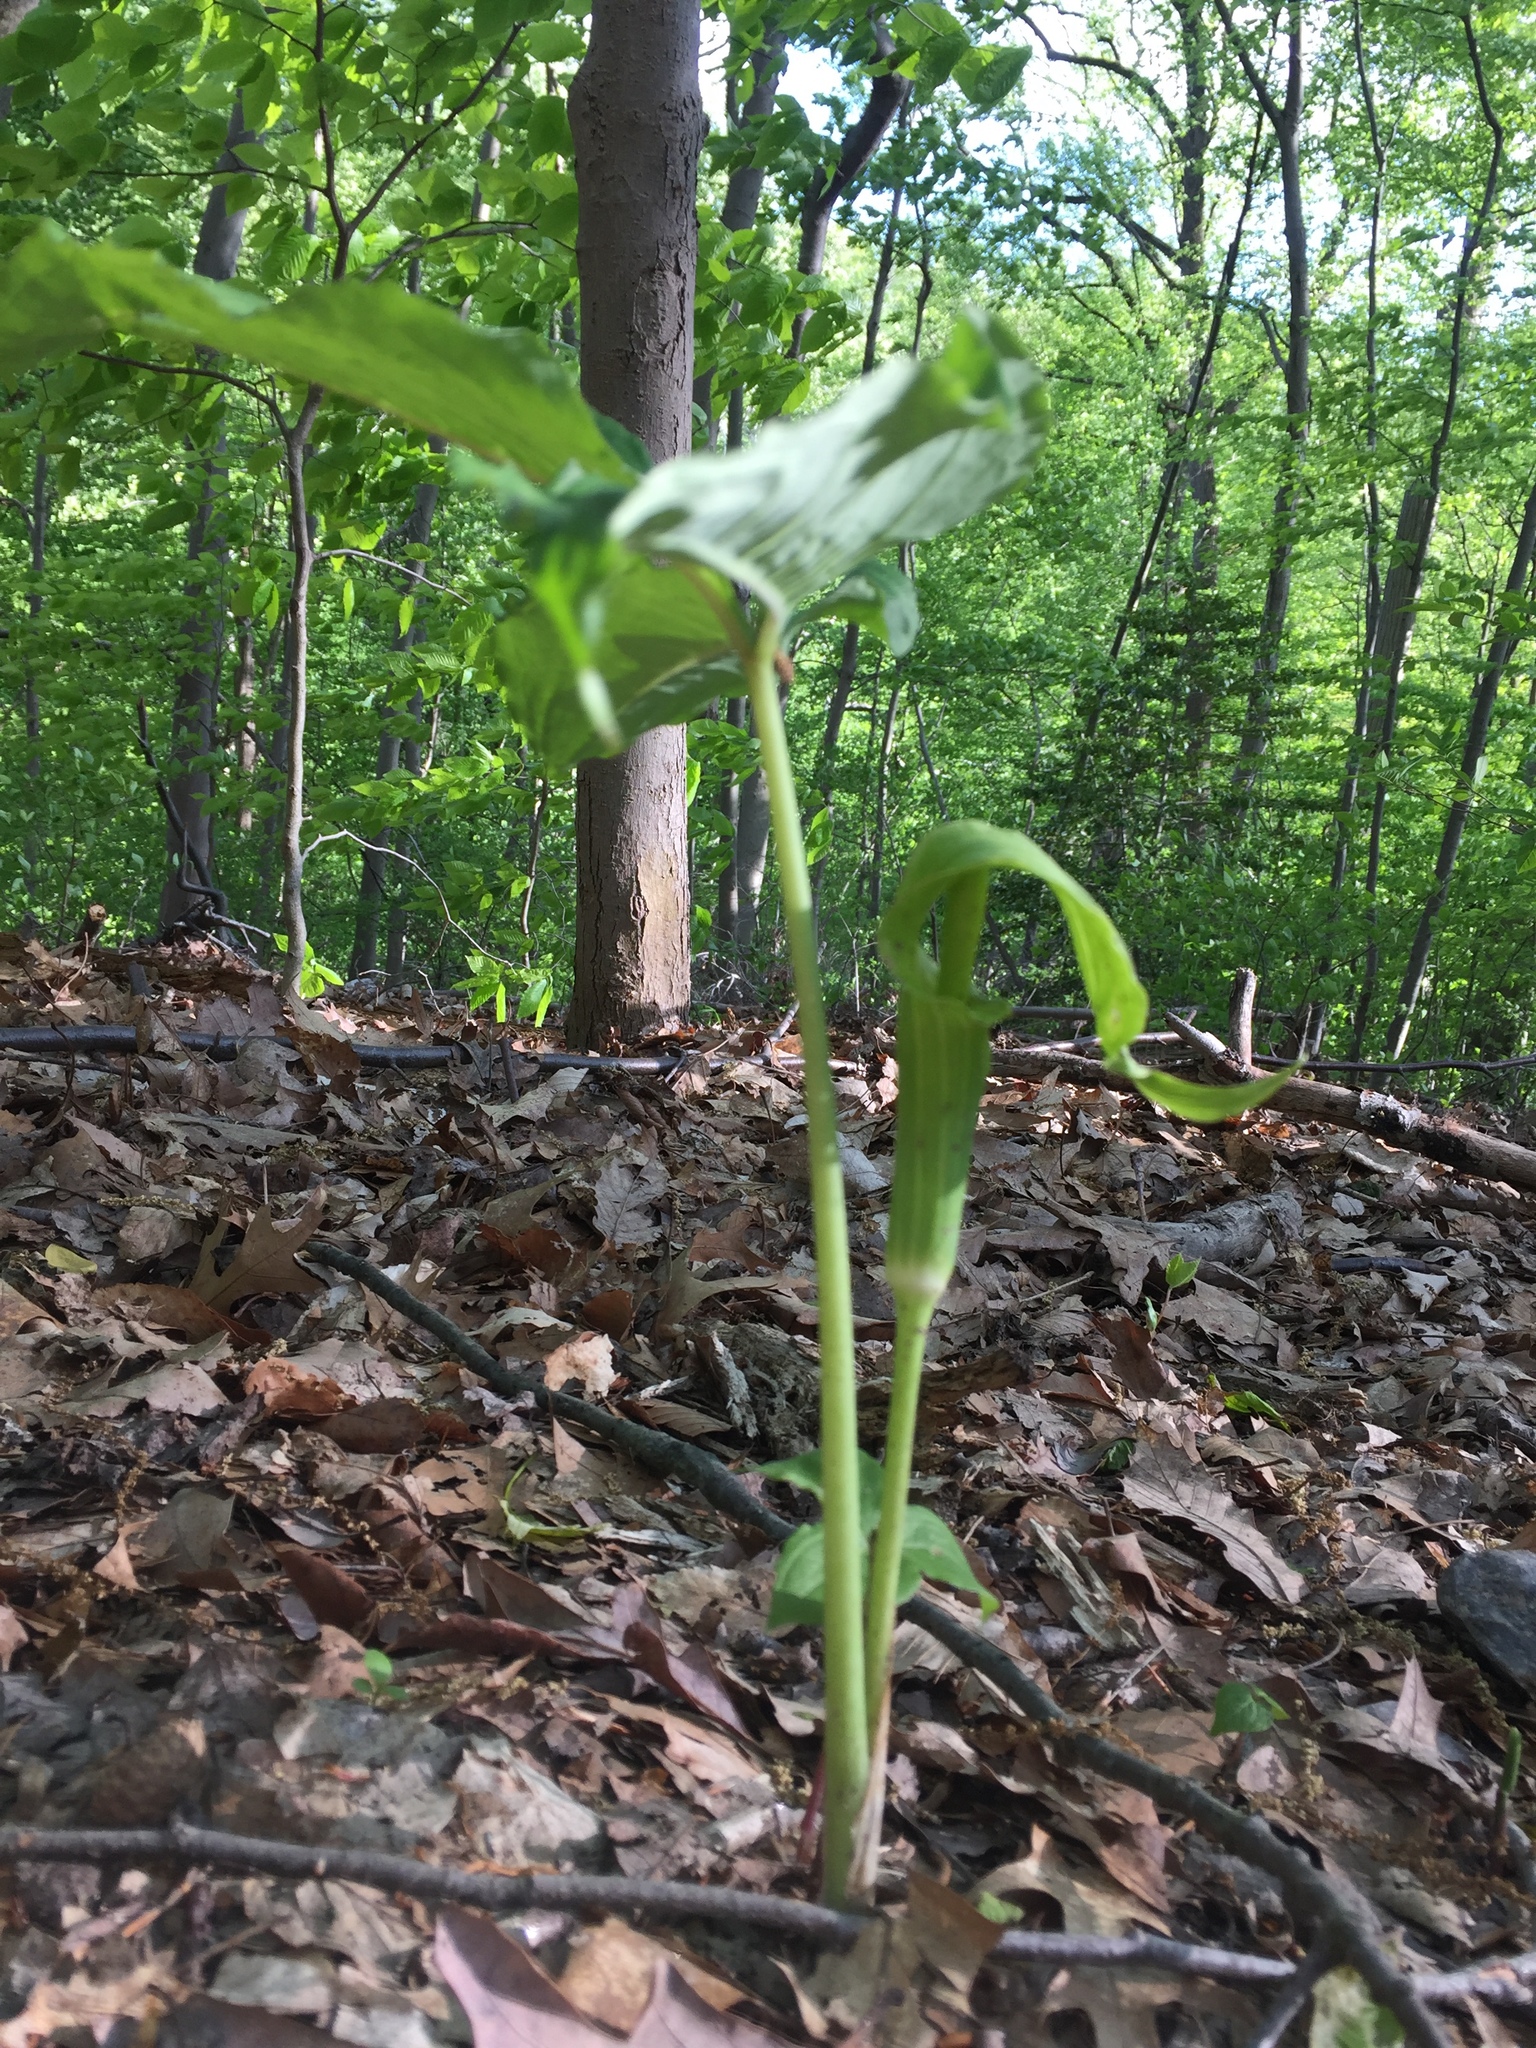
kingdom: Plantae
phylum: Tracheophyta
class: Liliopsida
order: Alismatales
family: Araceae
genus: Arisaema
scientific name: Arisaema triphyllum
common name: Jack-in-the-pulpit
